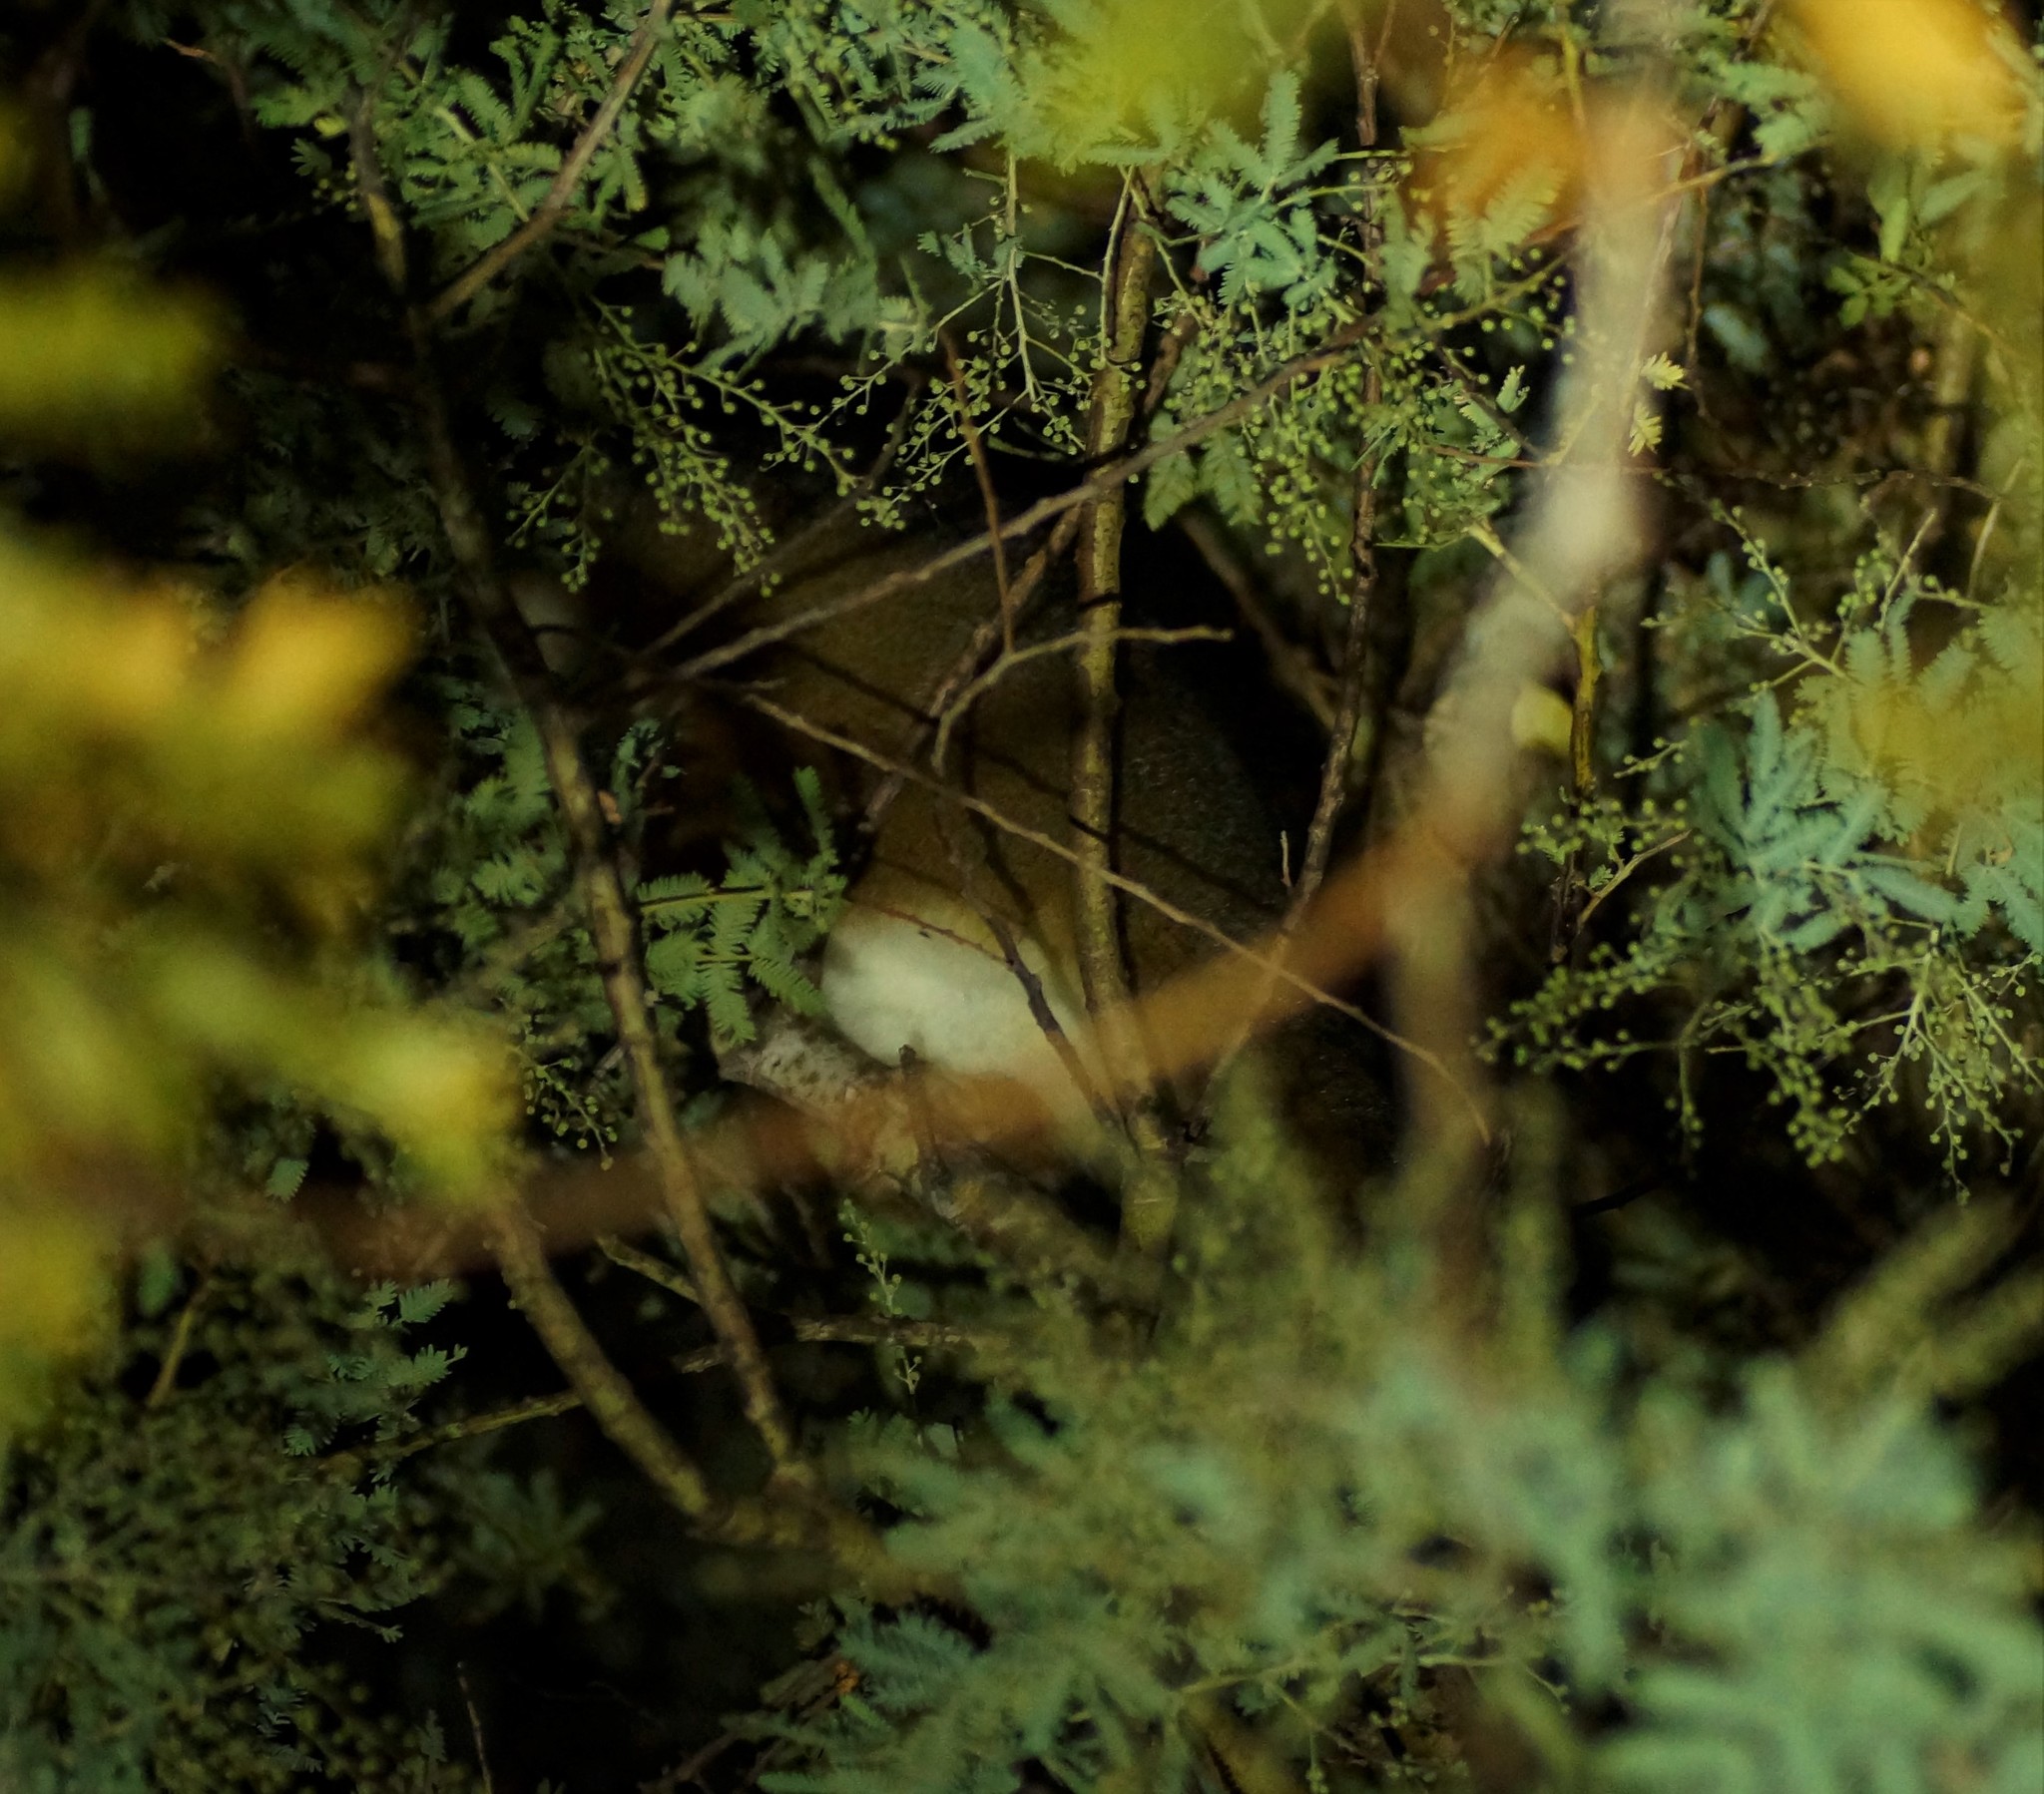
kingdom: Animalia
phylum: Chordata
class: Mammalia
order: Diprotodontia
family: Pseudocheiridae
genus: Pseudocheirus
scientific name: Pseudocheirus peregrinus
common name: Common ringtail possum
